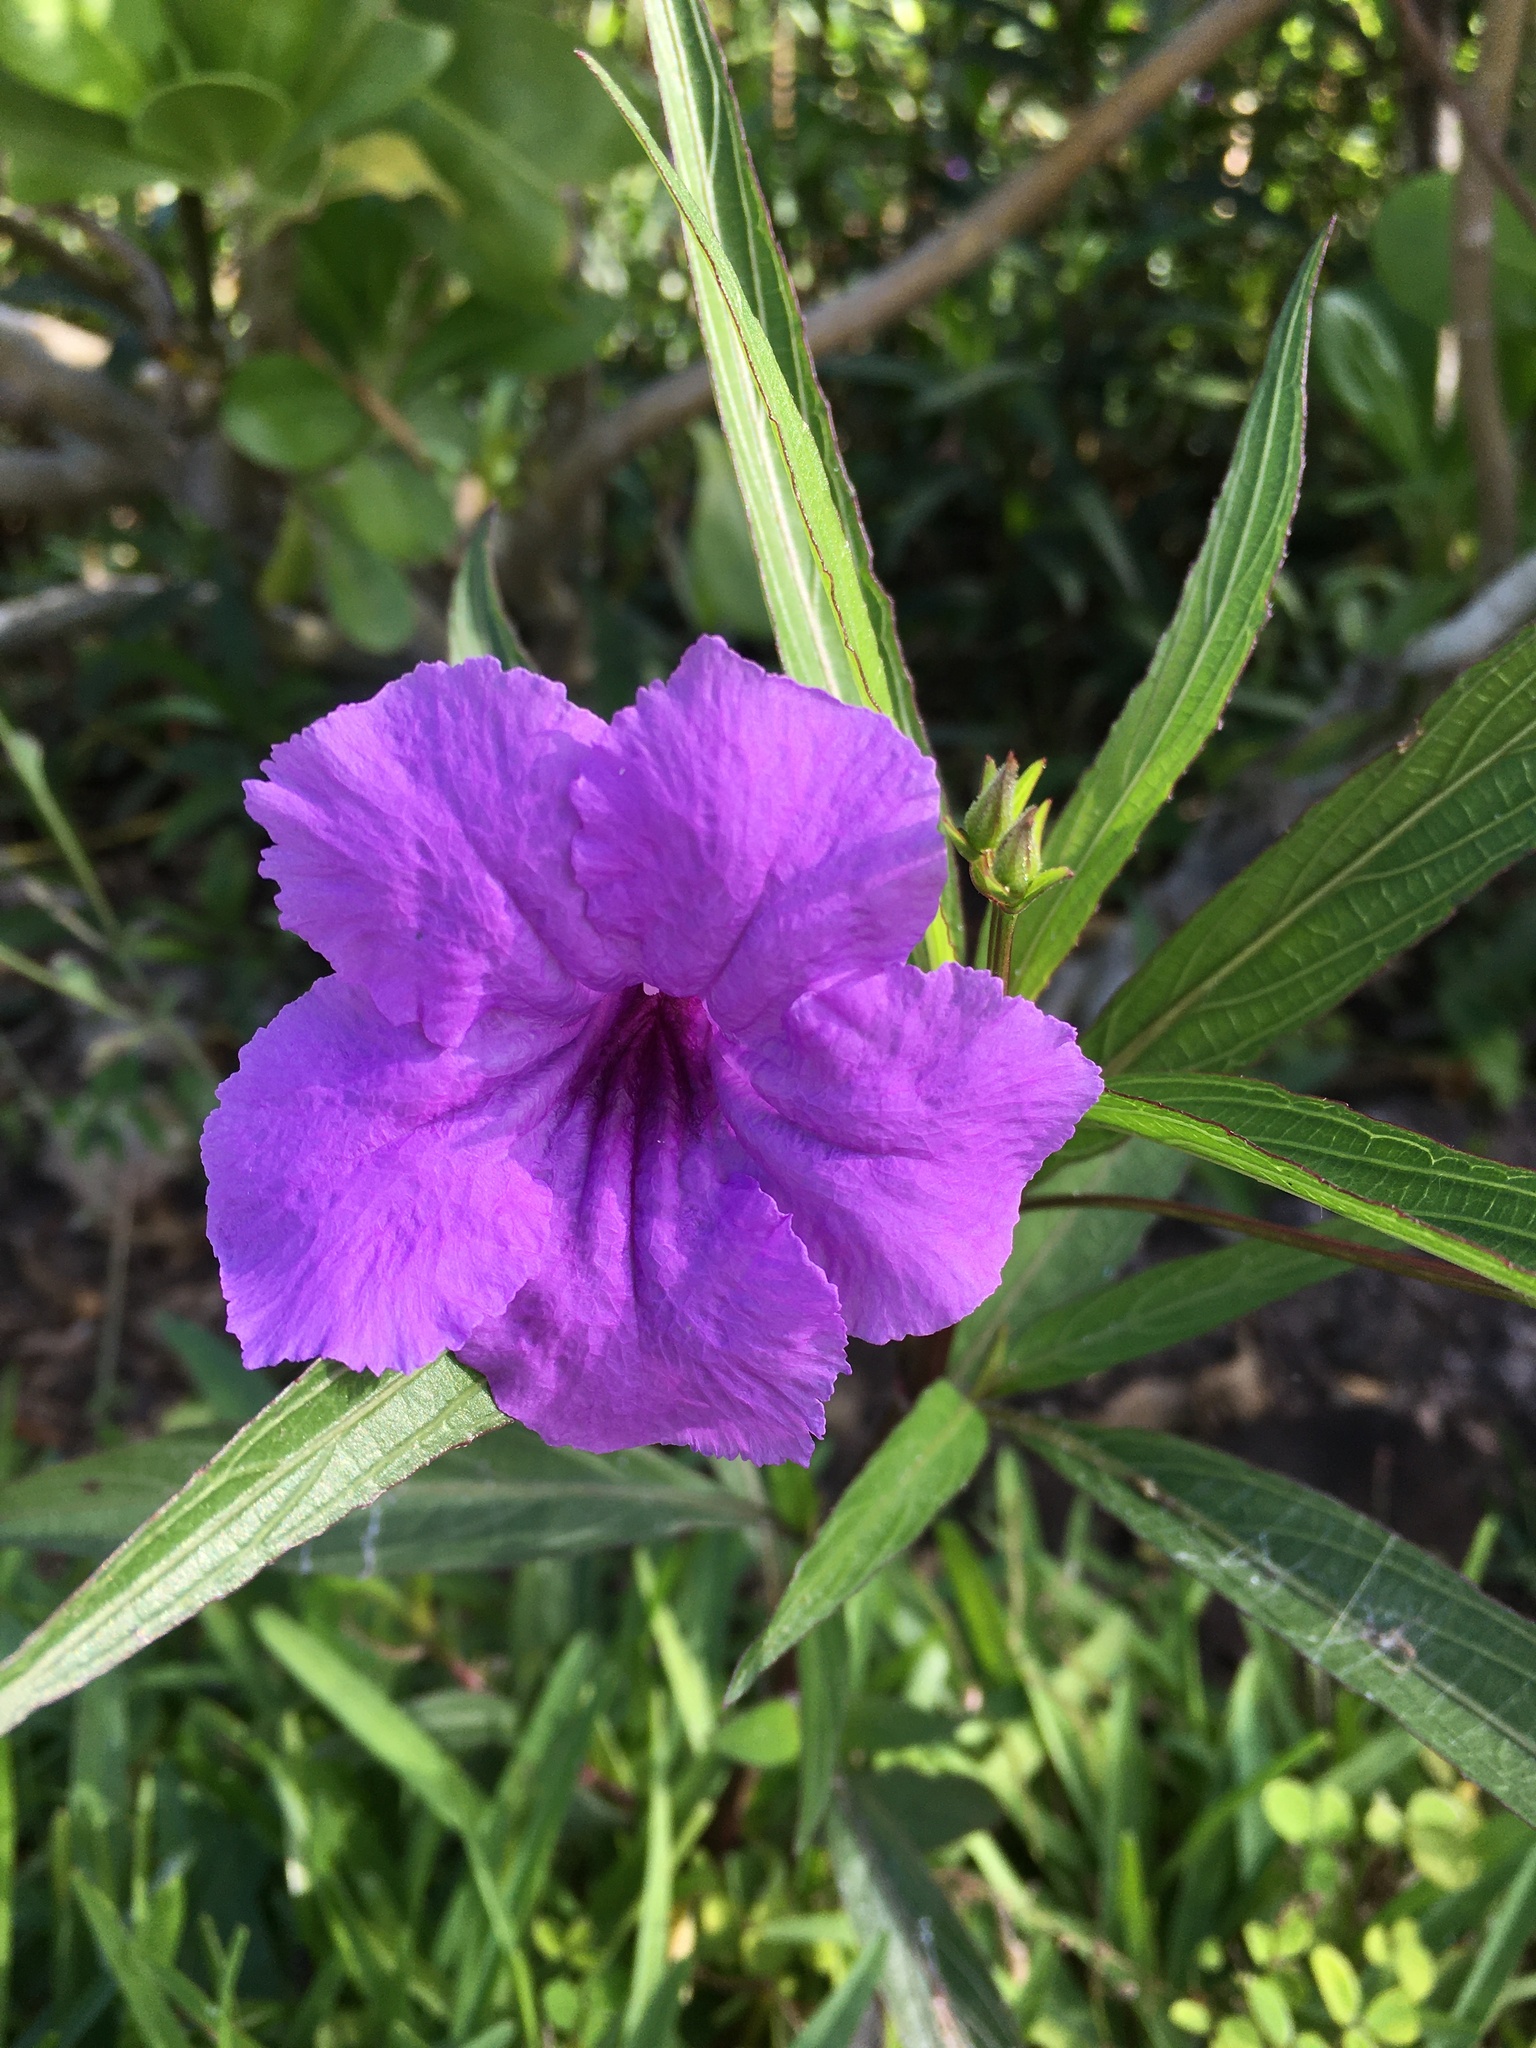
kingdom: Plantae
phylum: Tracheophyta
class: Magnoliopsida
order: Lamiales
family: Acanthaceae
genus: Ruellia
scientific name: Ruellia simplex
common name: Softseed wild petunia
